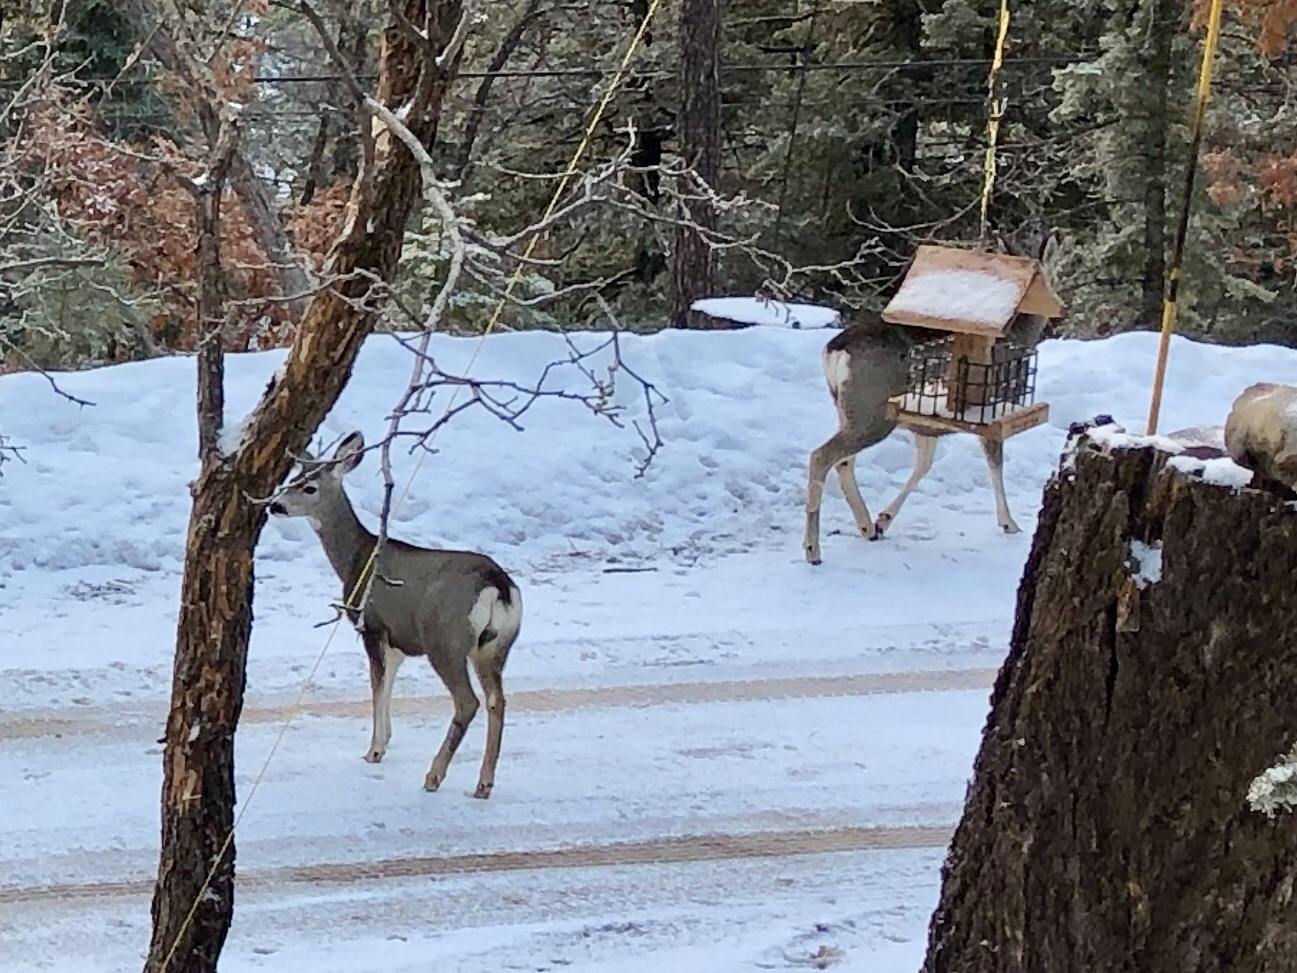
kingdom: Animalia
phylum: Chordata
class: Mammalia
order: Artiodactyla
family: Cervidae
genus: Odocoileus
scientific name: Odocoileus hemionus
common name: Mule deer
